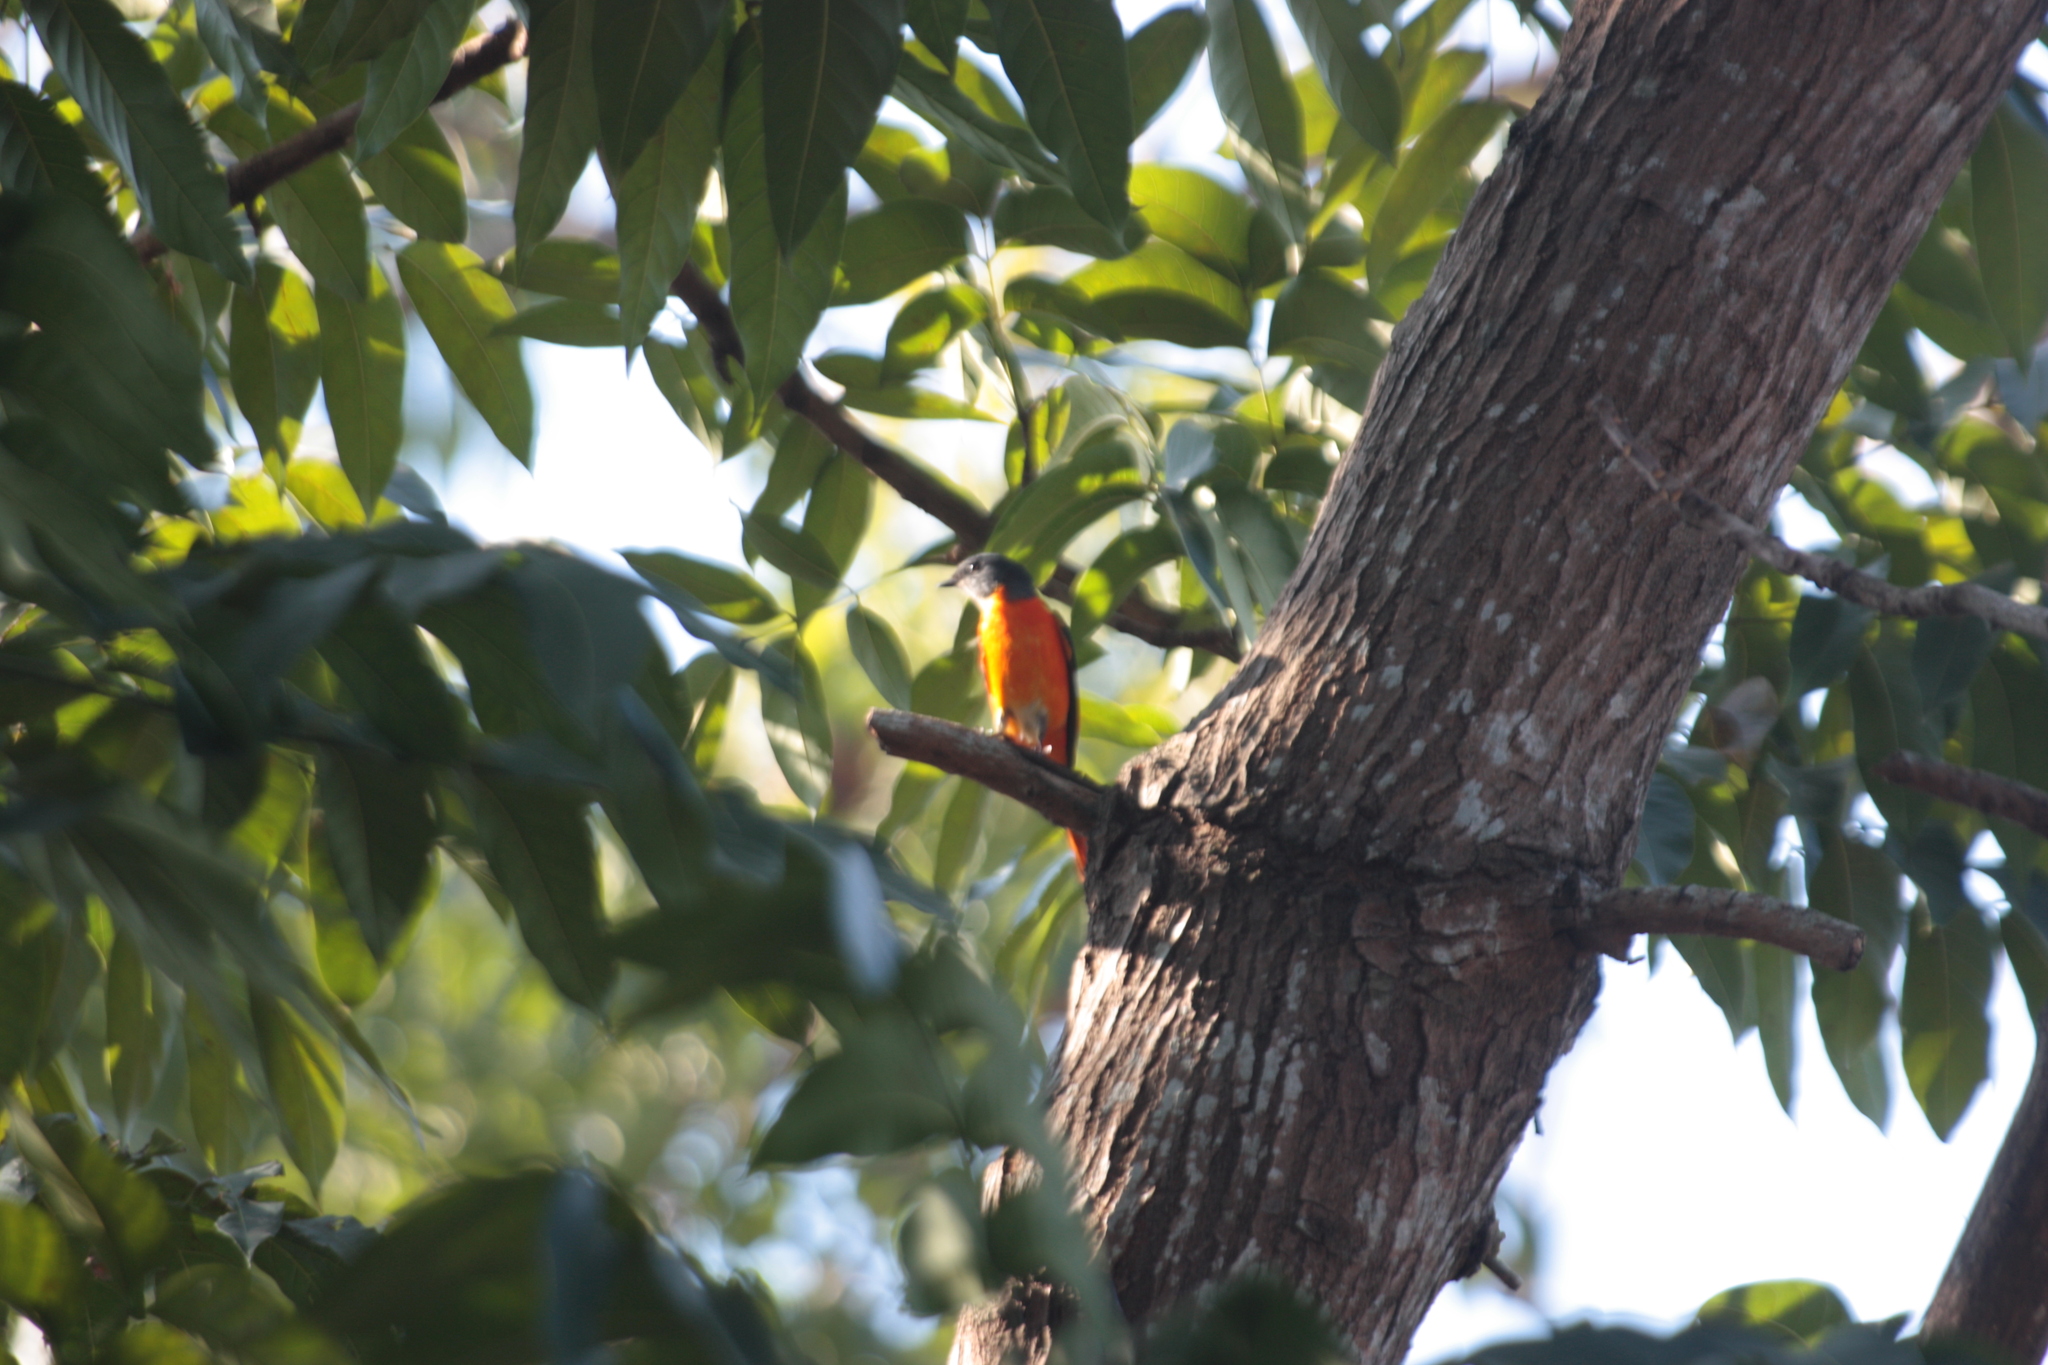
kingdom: Animalia
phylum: Chordata
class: Aves
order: Passeriformes
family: Campephagidae
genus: Pericrocotus
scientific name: Pericrocotus solaris
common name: Grey-chinned minivet
